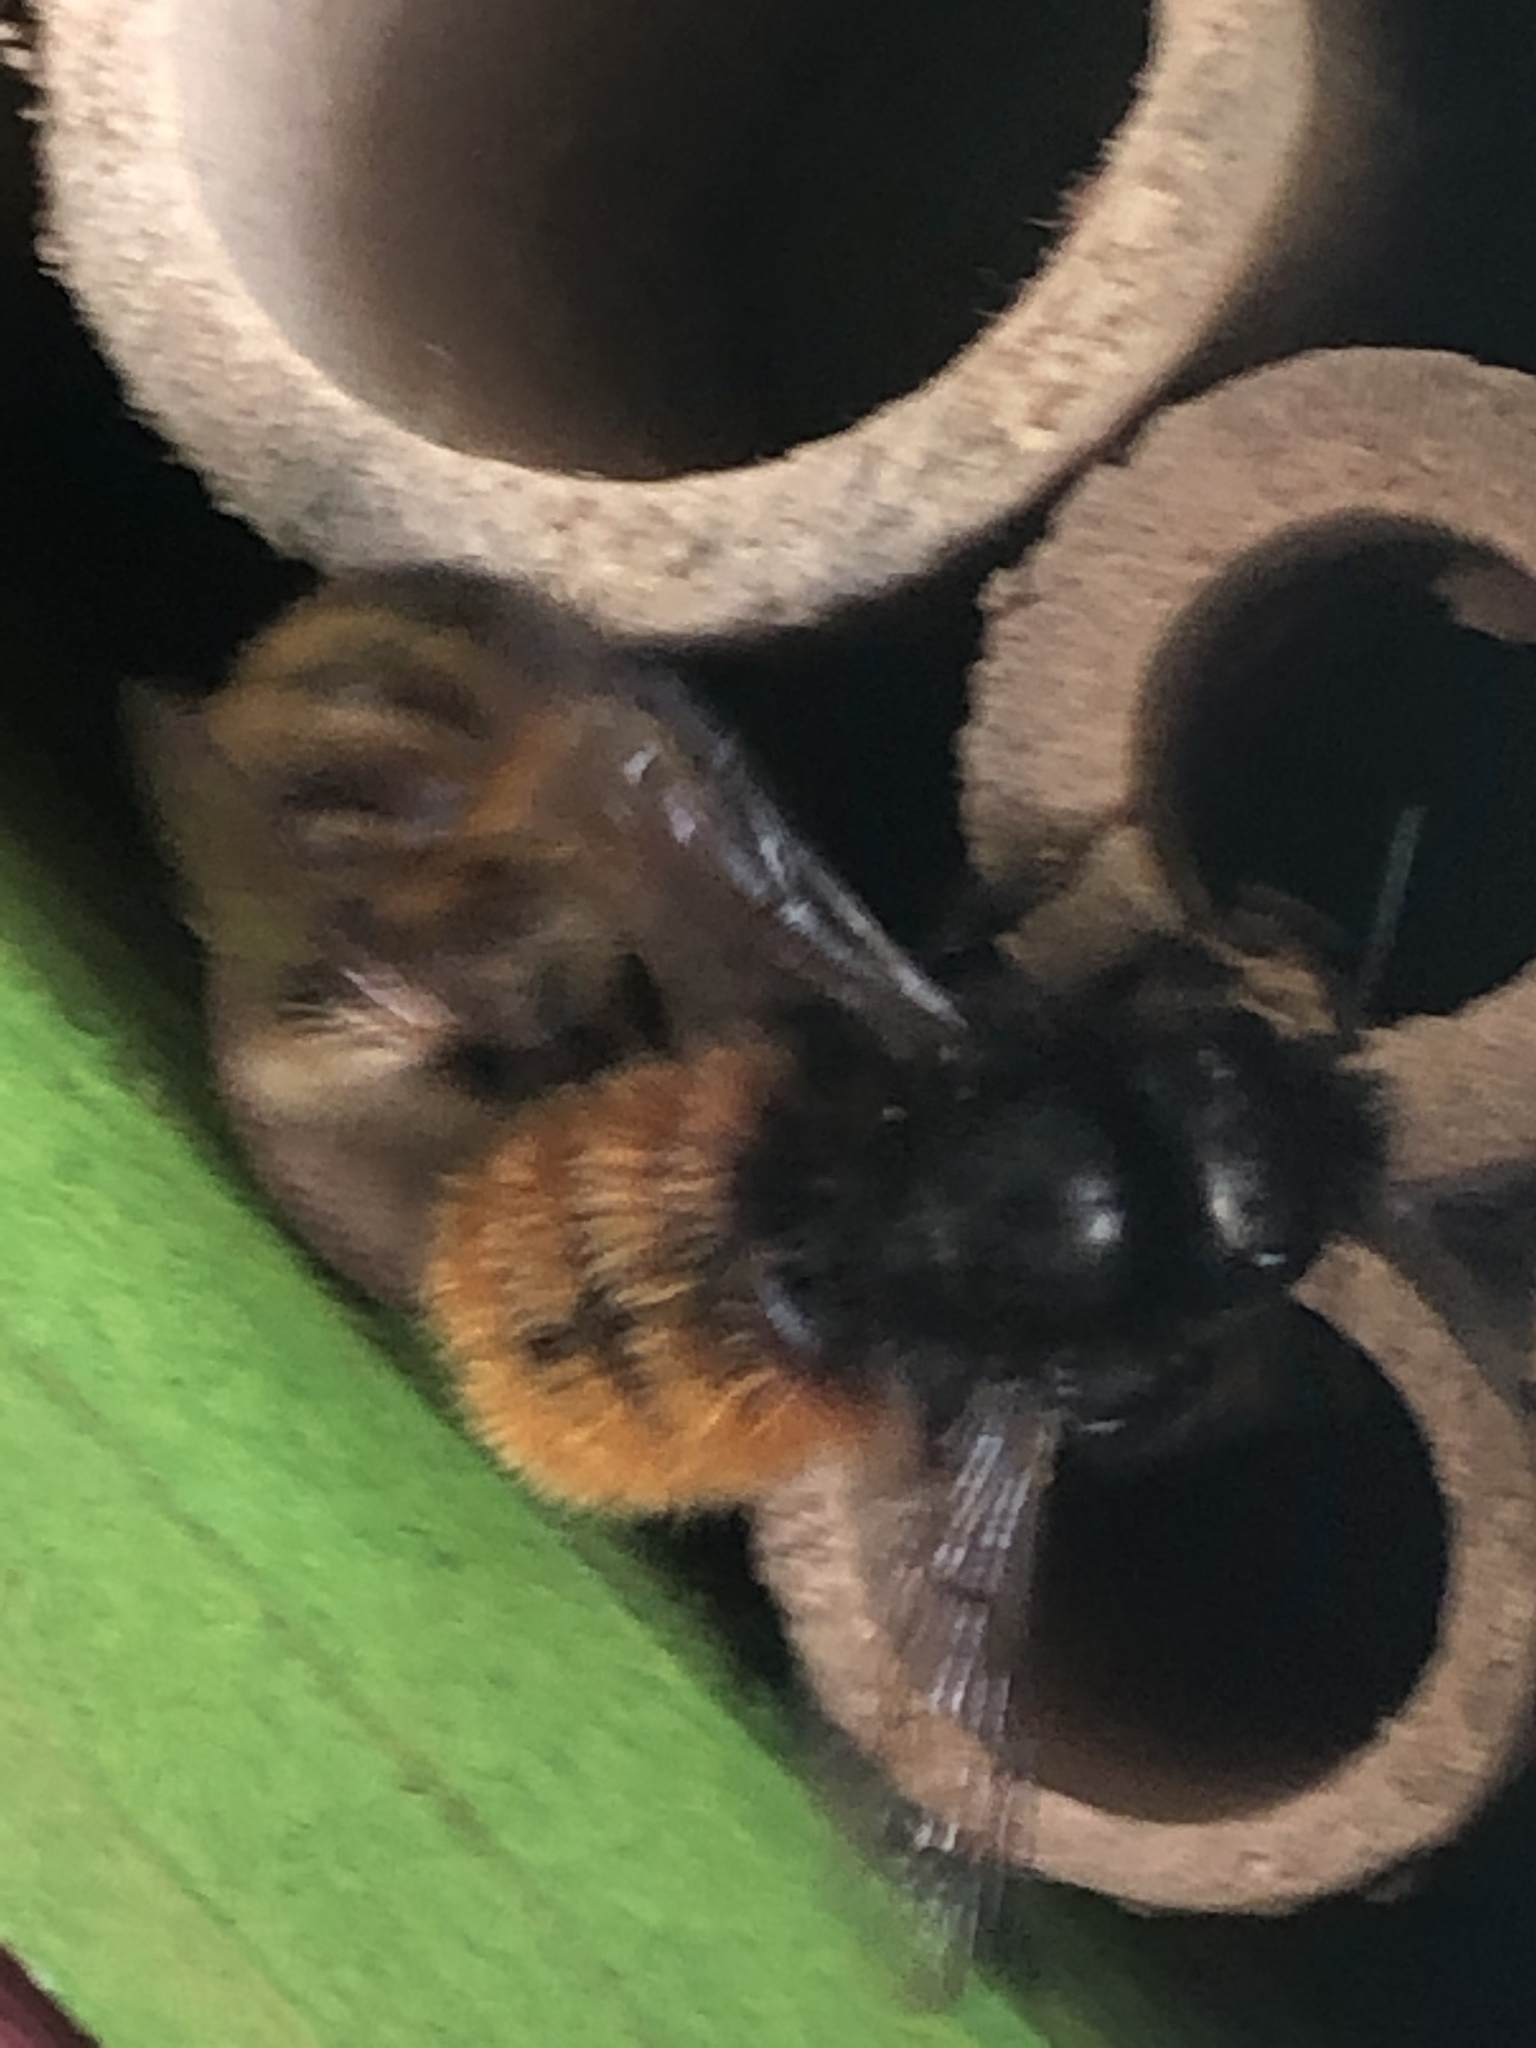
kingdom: Animalia
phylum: Arthropoda
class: Insecta
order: Hymenoptera
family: Megachilidae
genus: Osmia
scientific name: Osmia cornuta
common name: Mason bee
